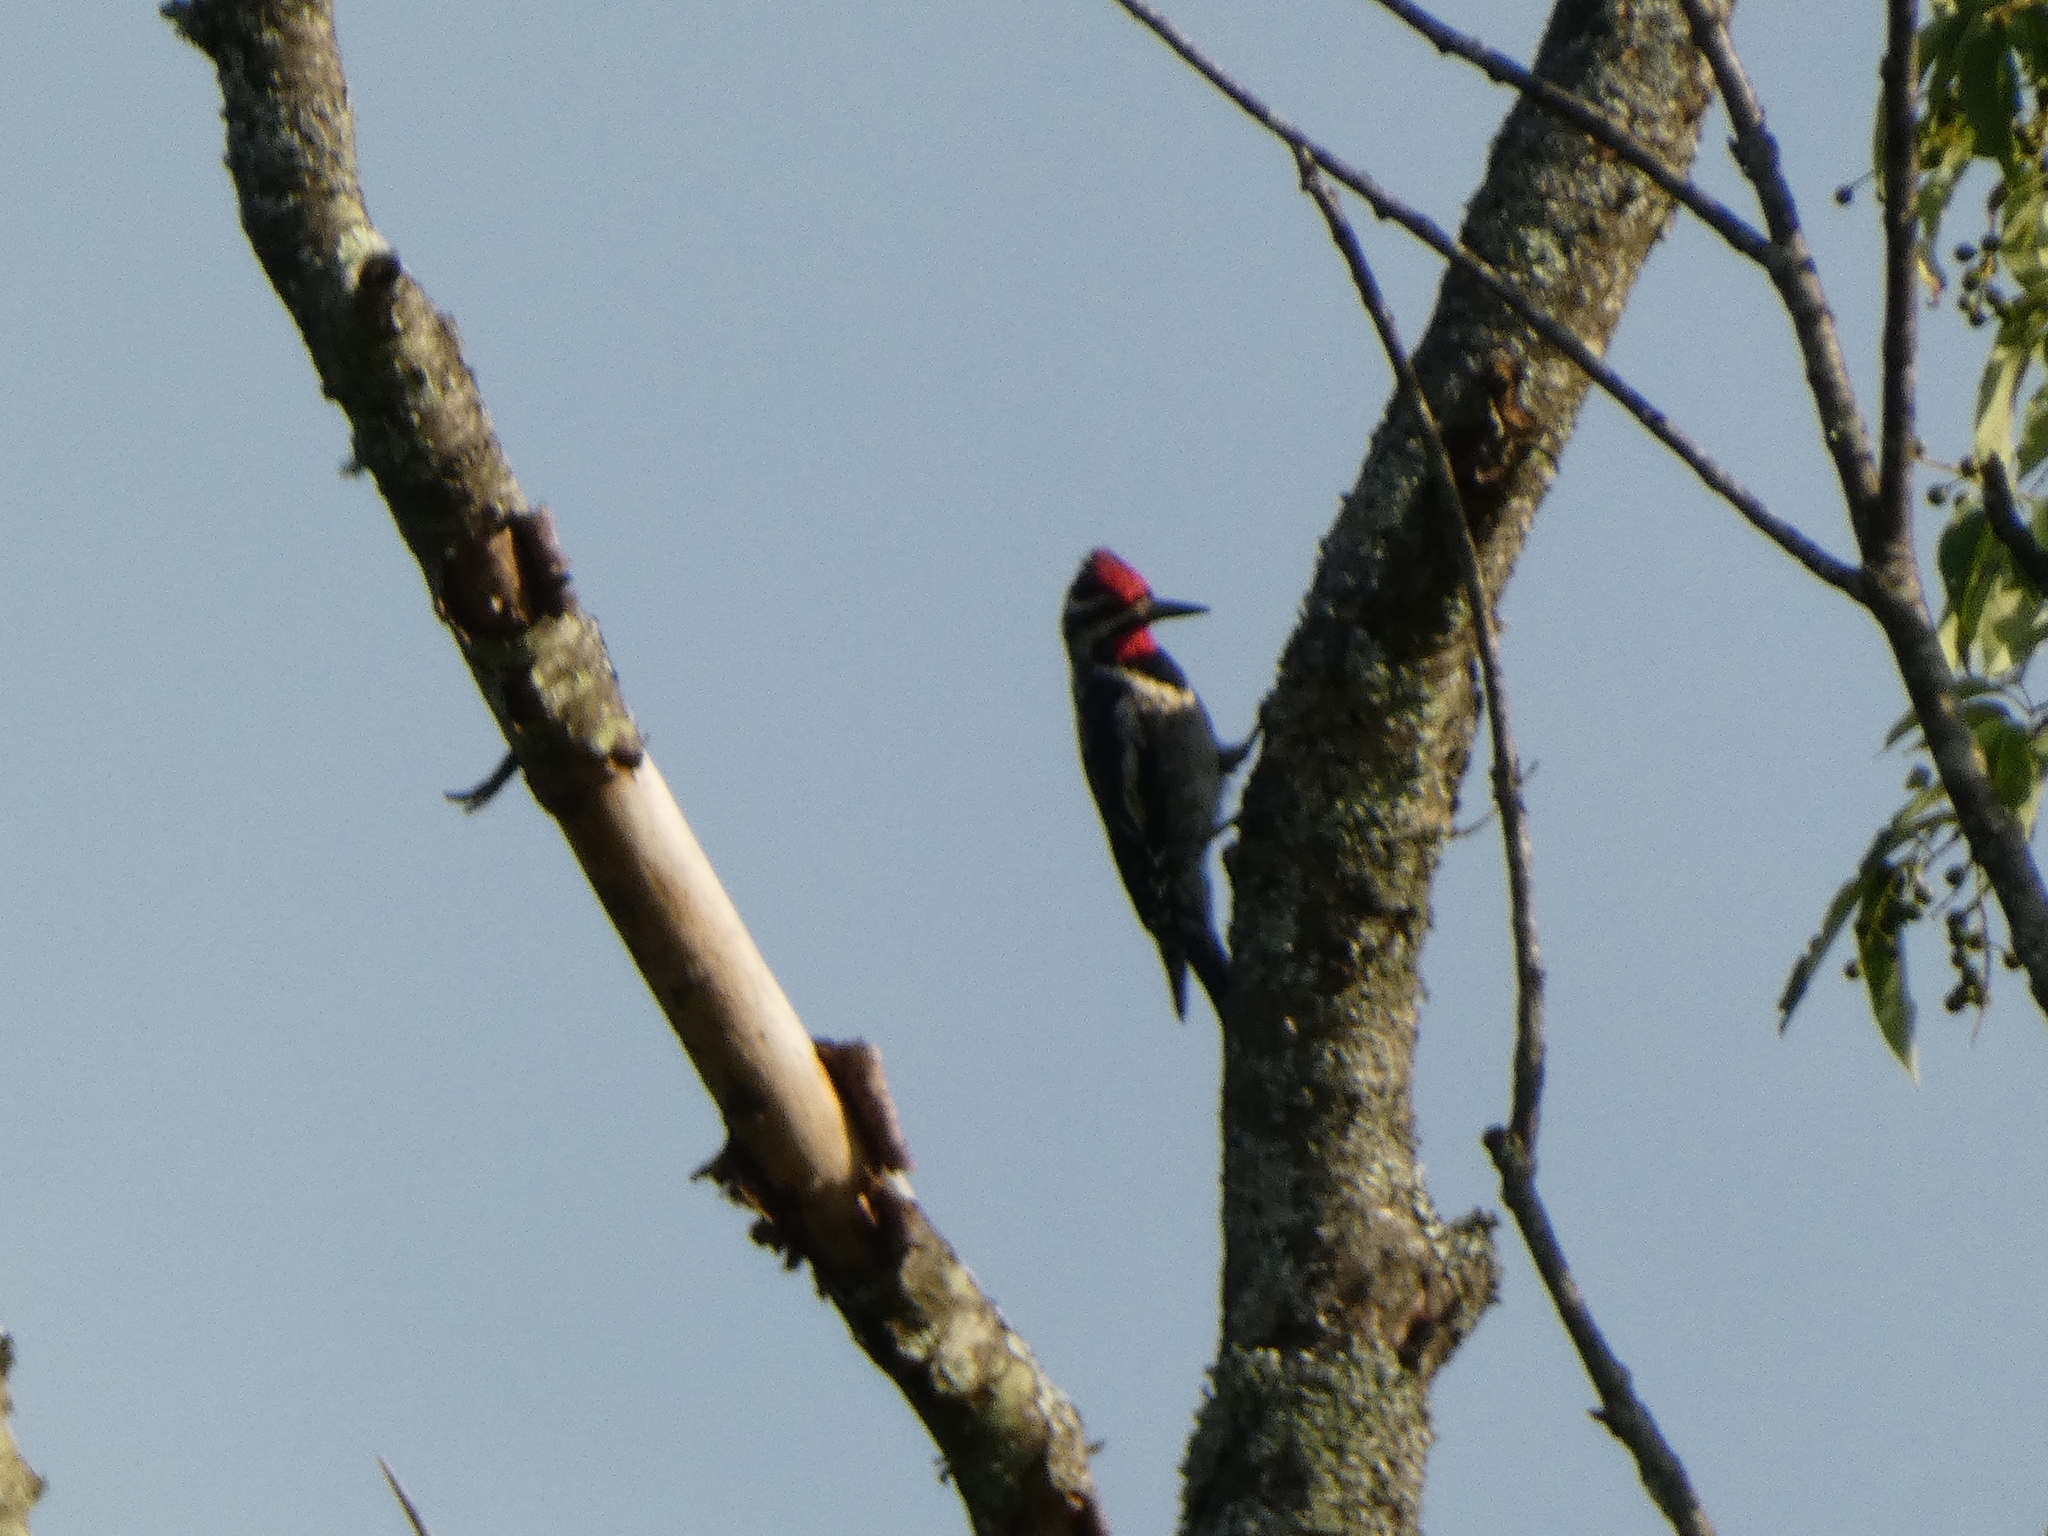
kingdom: Animalia
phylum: Chordata
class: Aves
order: Piciformes
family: Picidae
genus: Sphyrapicus
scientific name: Sphyrapicus varius
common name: Yellow-bellied sapsucker
